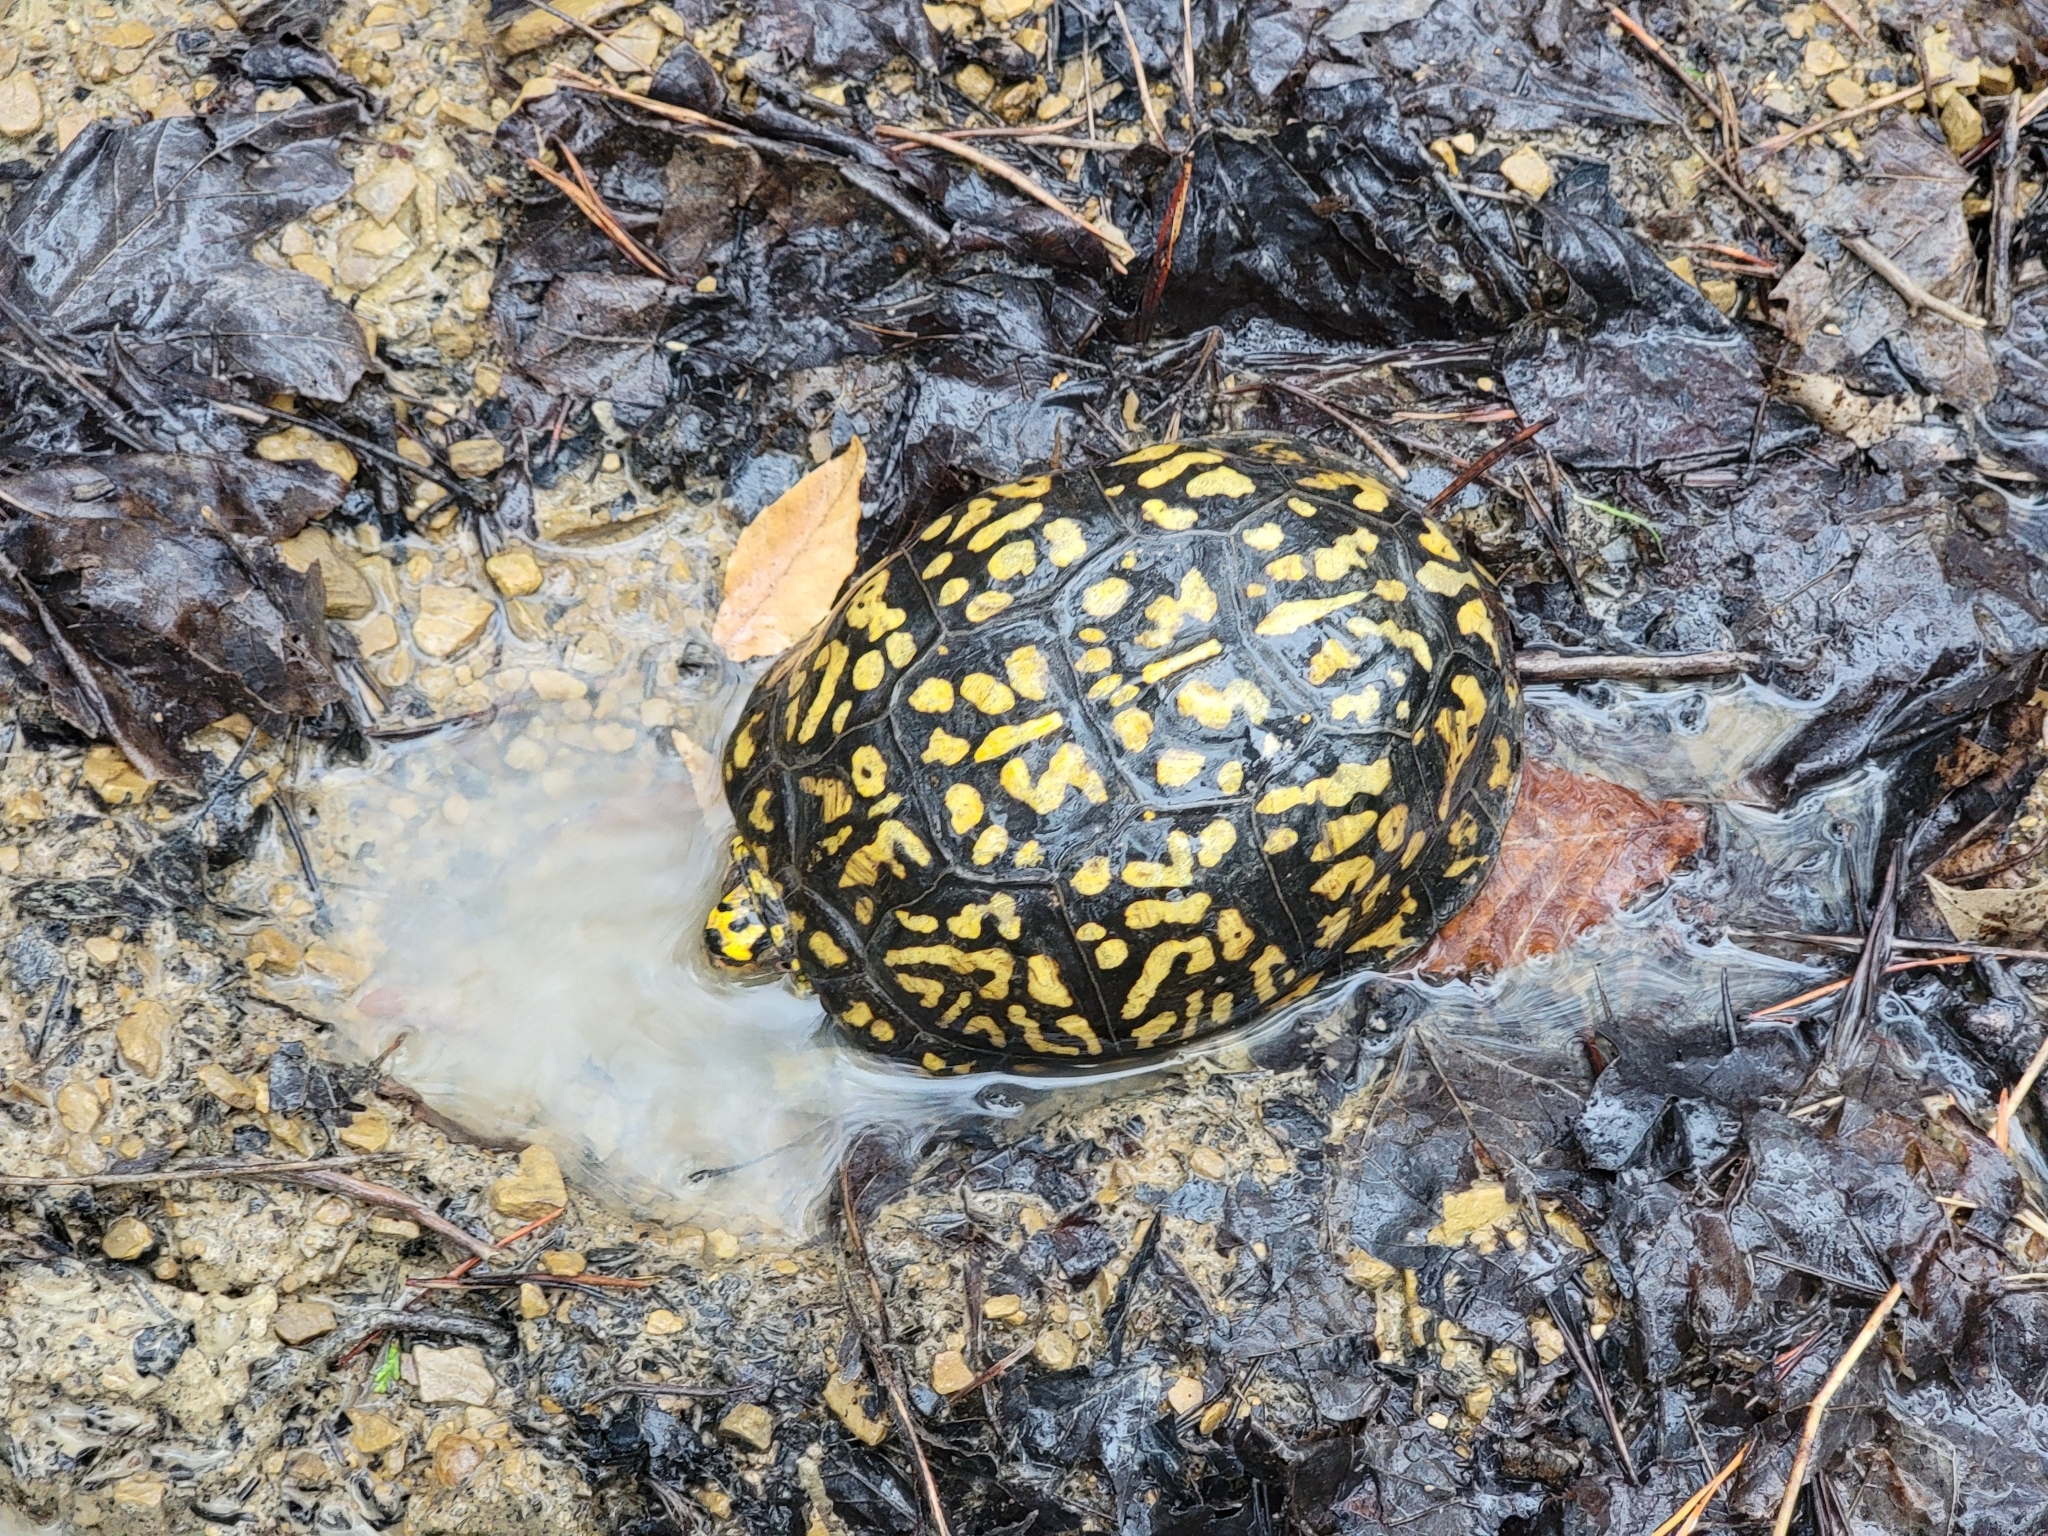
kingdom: Animalia
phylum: Chordata
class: Testudines
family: Emydidae
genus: Terrapene
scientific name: Terrapene carolina
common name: Common box turtle
